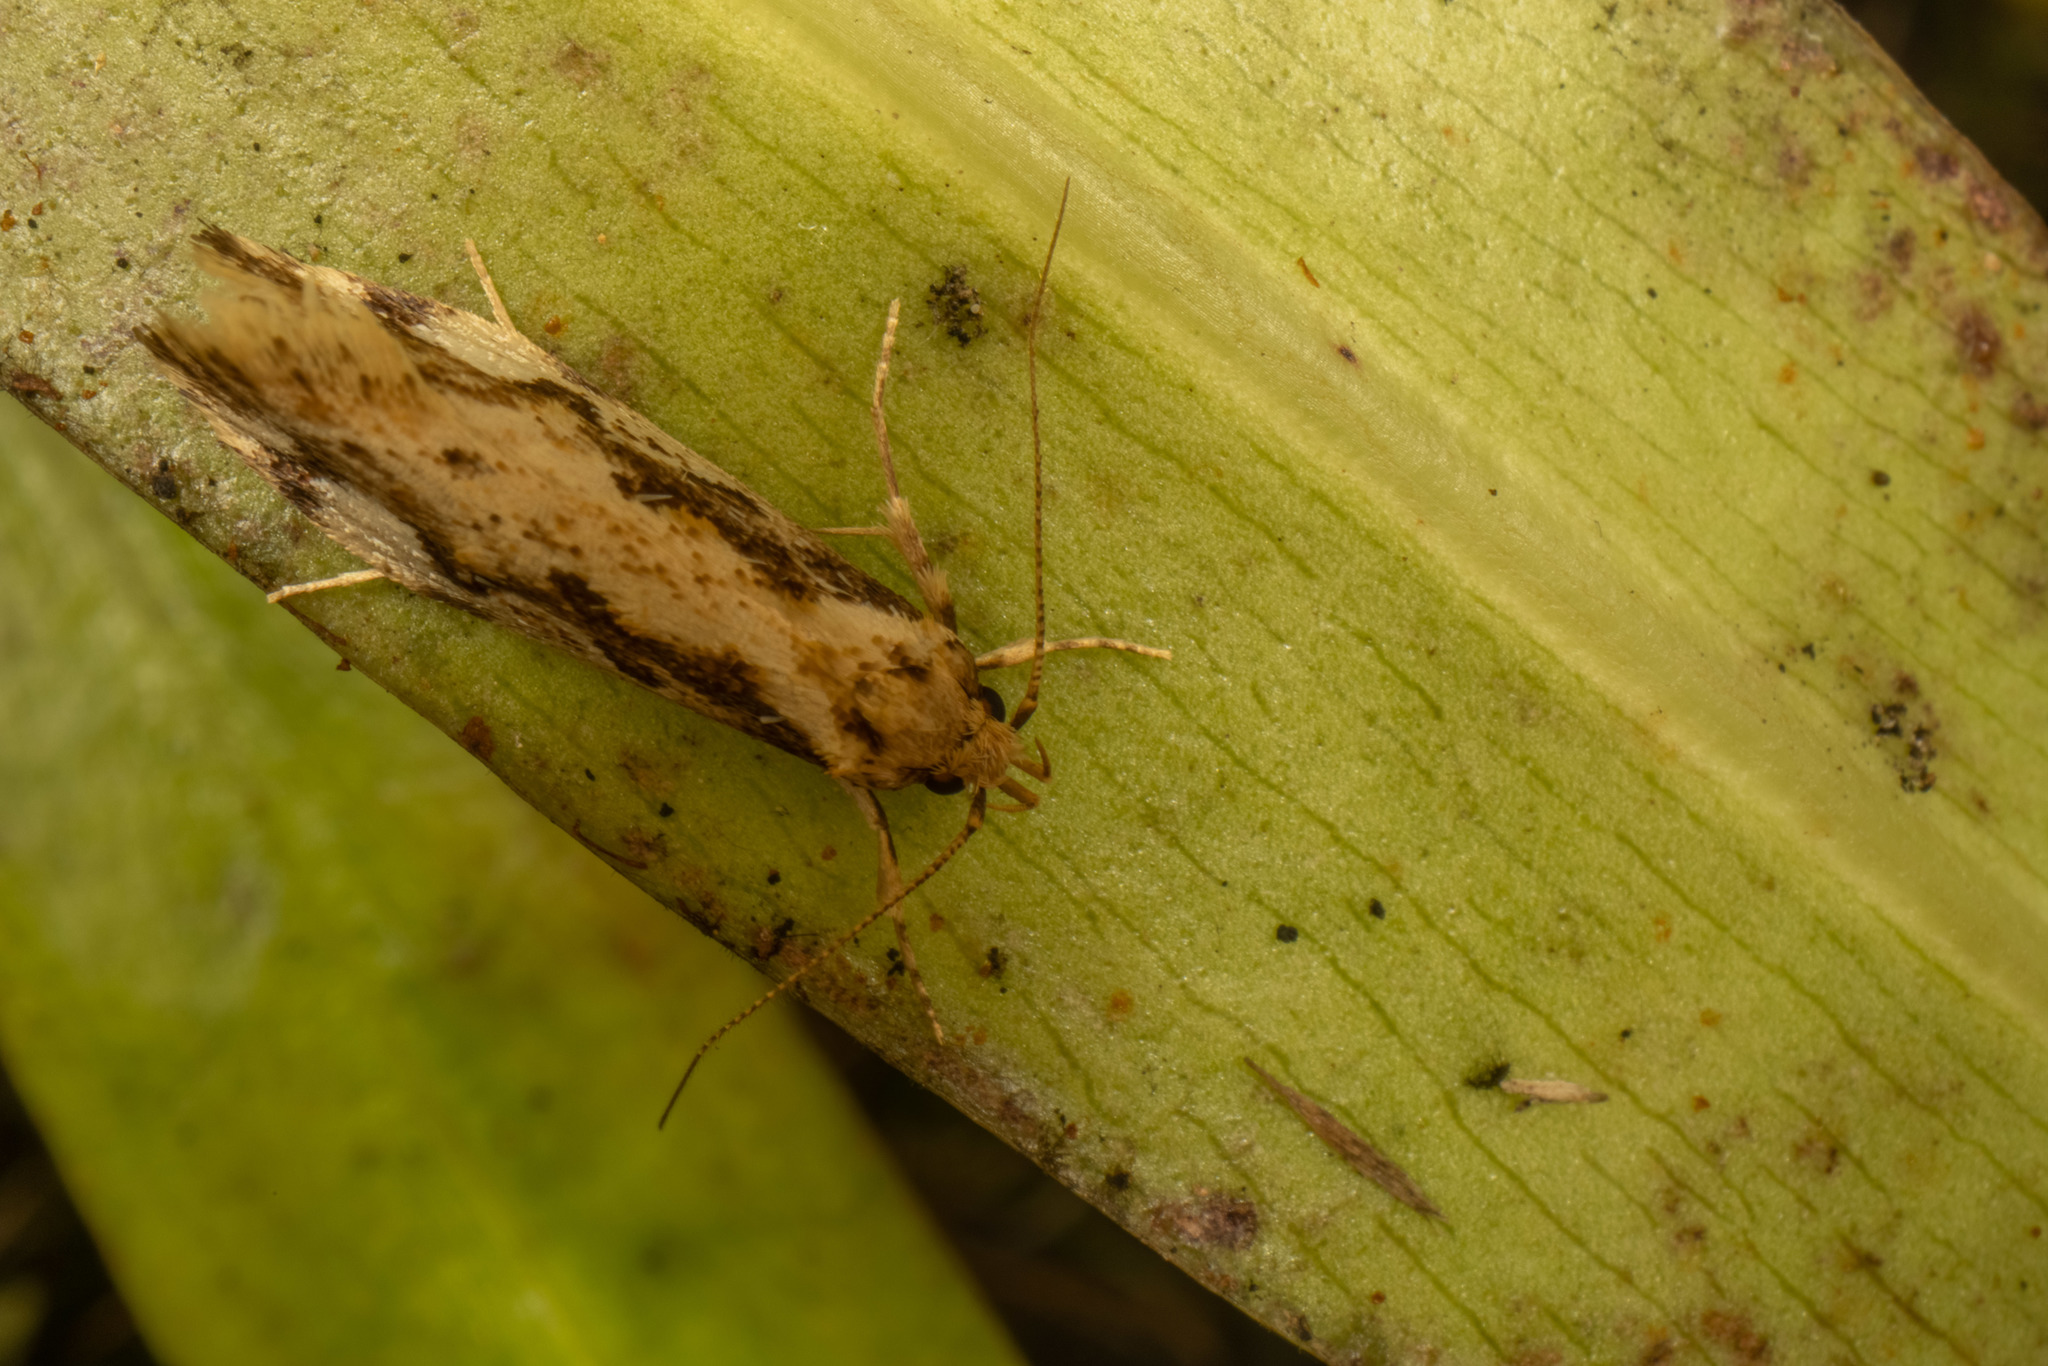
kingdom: Animalia
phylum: Arthropoda
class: Insecta
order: Lepidoptera
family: Oecophoridae
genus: Atomotricha
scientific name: Atomotricha isogama
